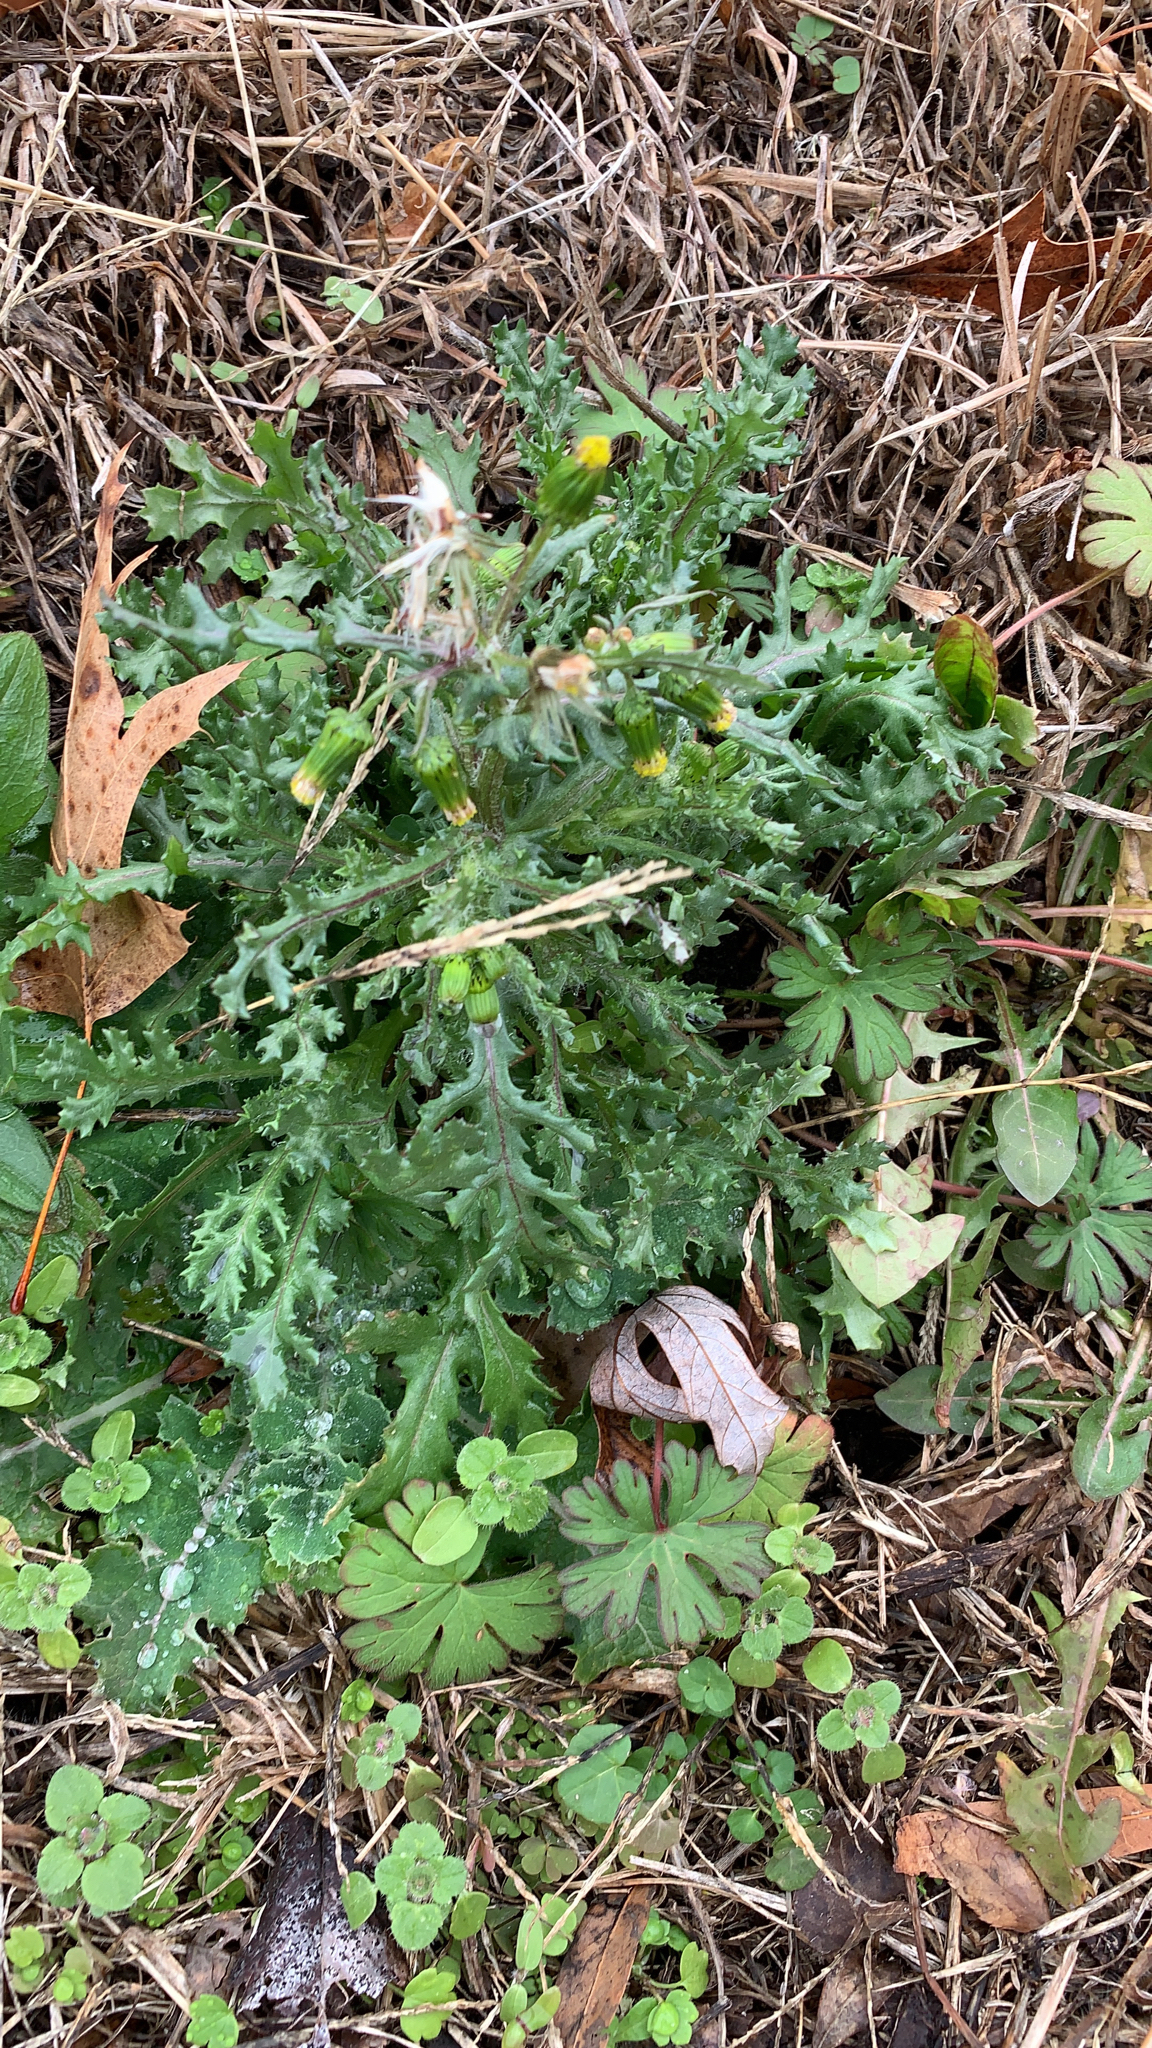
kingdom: Plantae
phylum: Tracheophyta
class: Magnoliopsida
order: Asterales
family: Asteraceae
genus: Senecio
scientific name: Senecio vulgaris
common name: Old-man-in-the-spring
